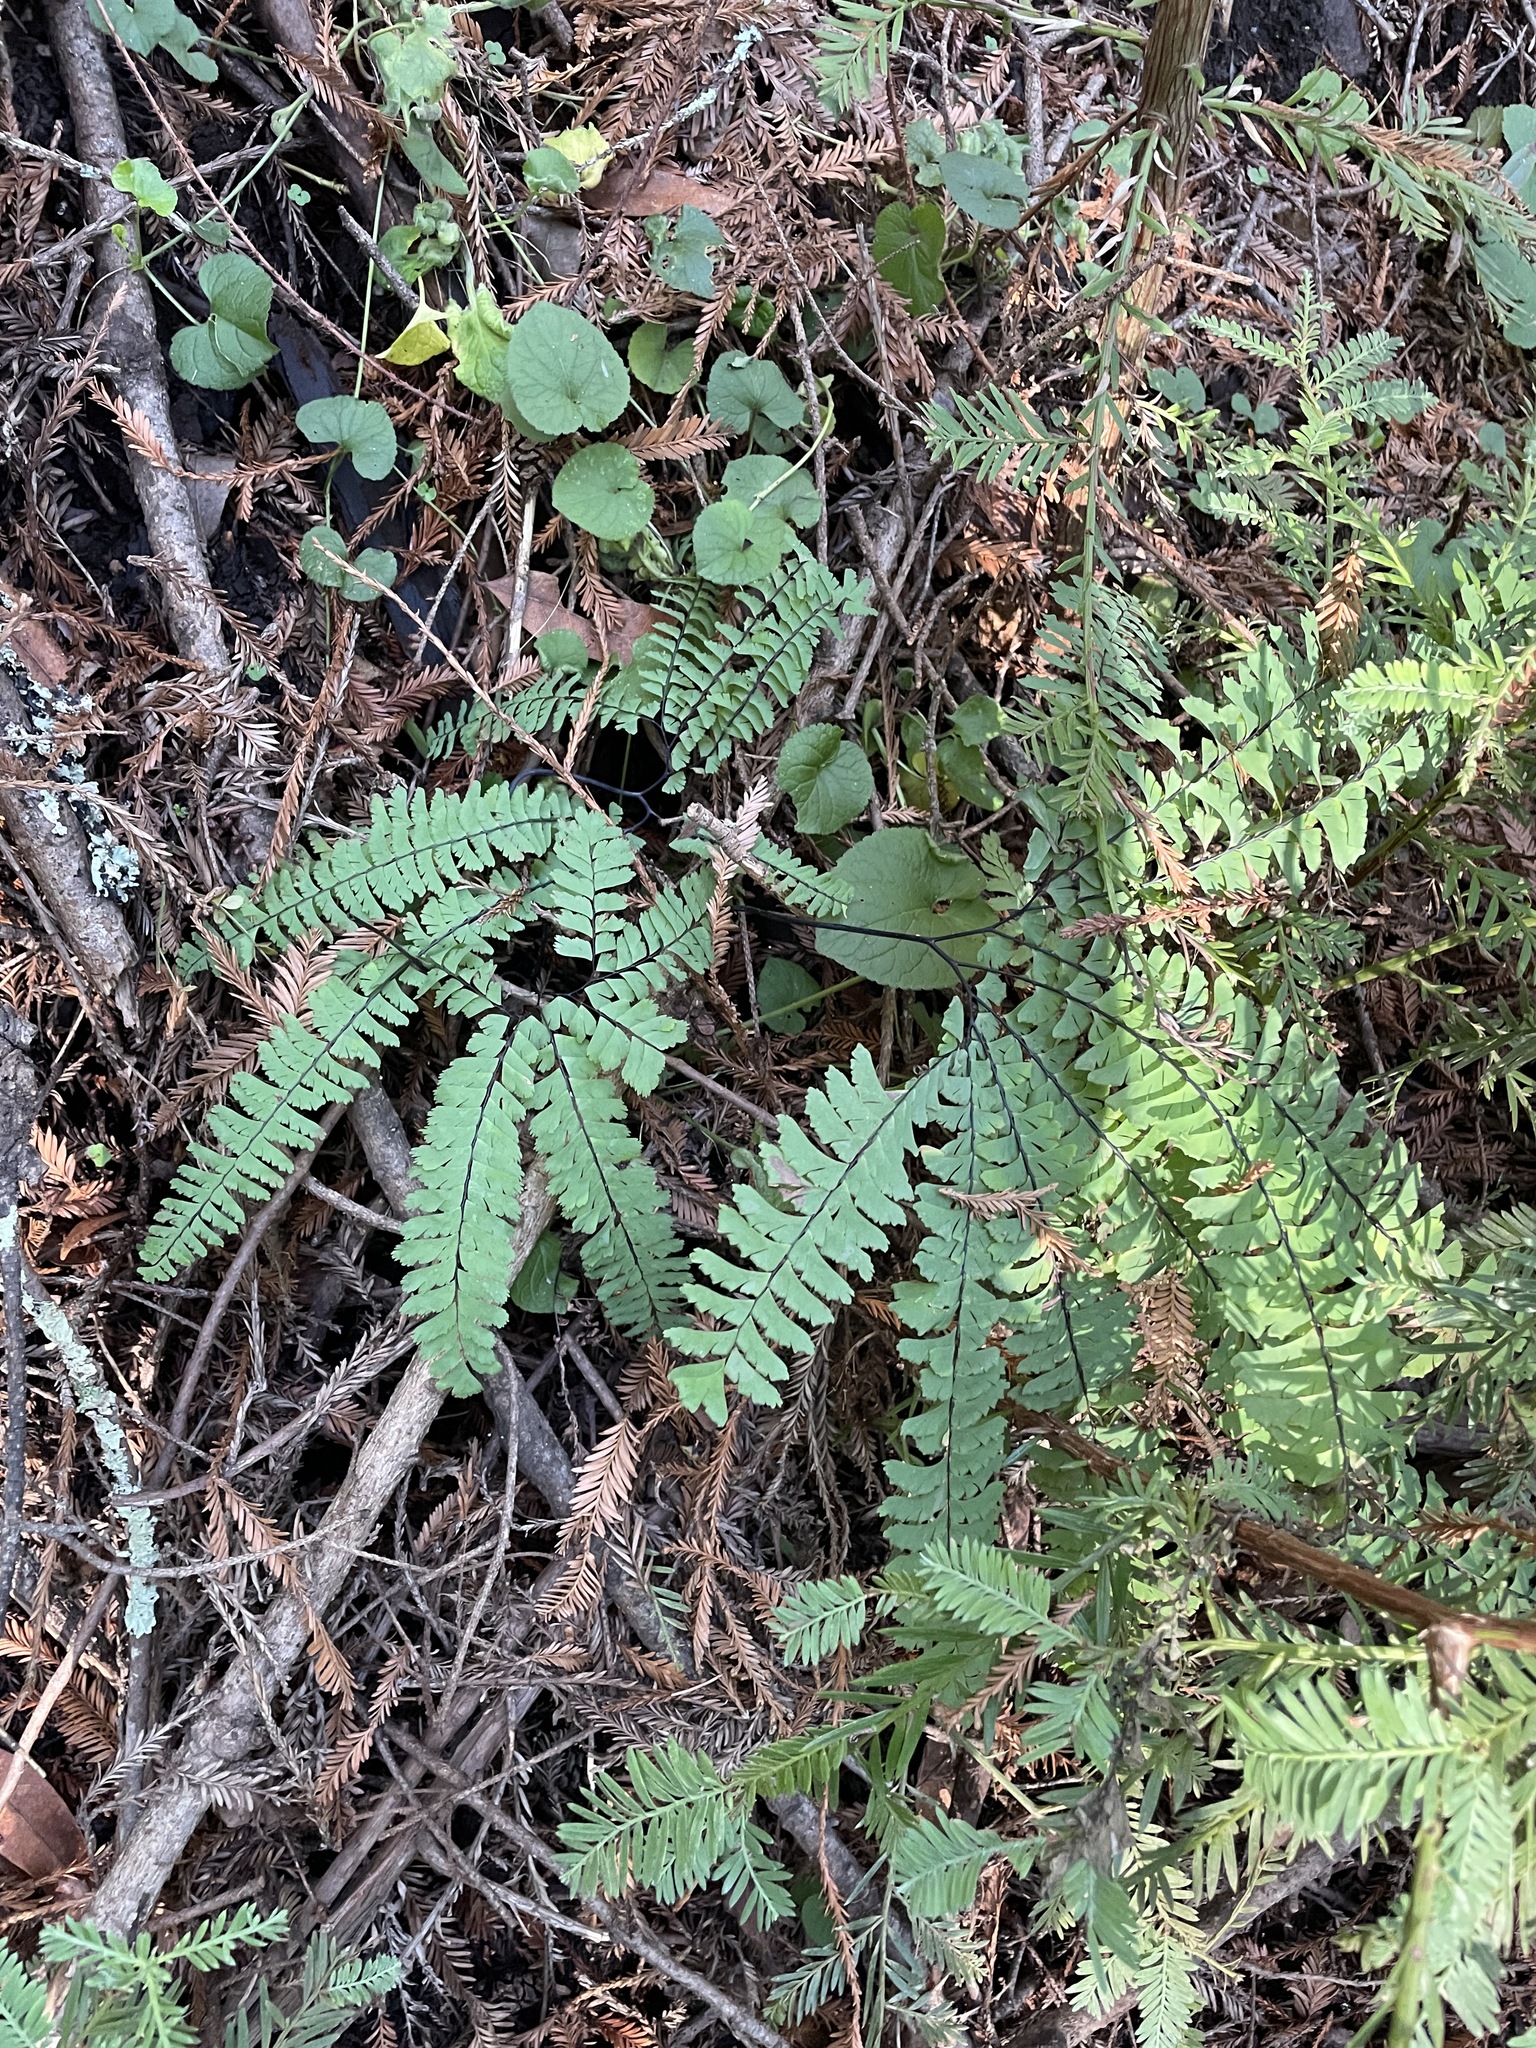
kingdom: Plantae
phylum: Tracheophyta
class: Polypodiopsida
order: Polypodiales
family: Pteridaceae
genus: Adiantum
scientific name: Adiantum aleuticum
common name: Aleutian maidenhair fern
